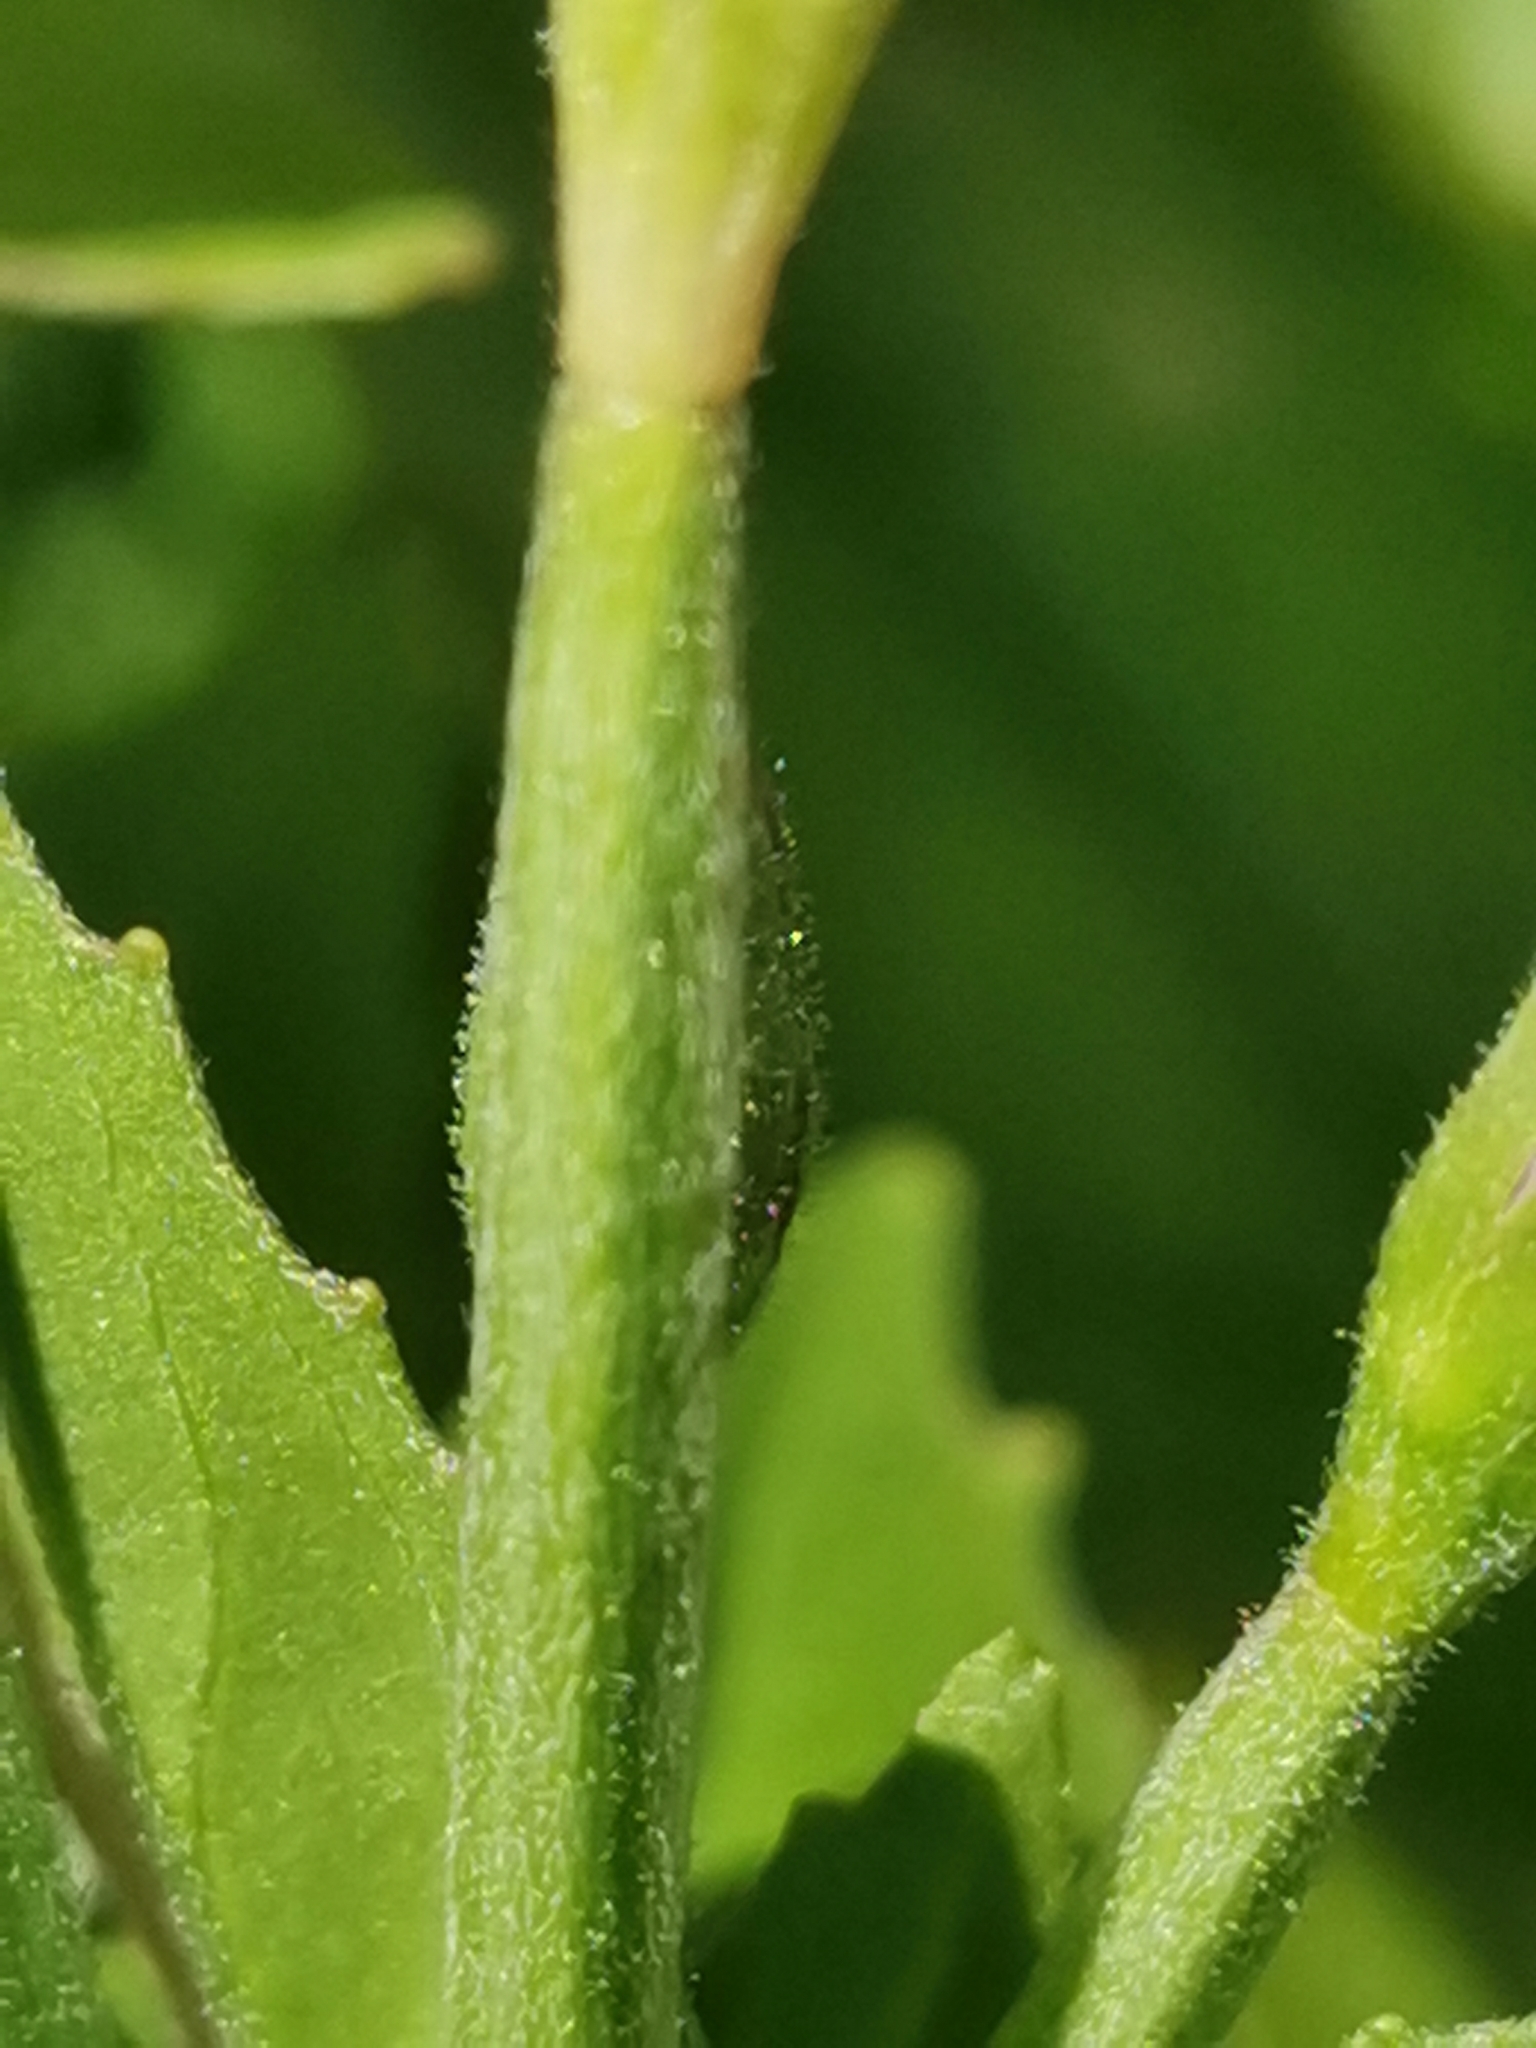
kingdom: Plantae
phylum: Tracheophyta
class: Magnoliopsida
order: Myrtales
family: Onagraceae
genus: Epilobium
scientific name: Epilobium alpestre
